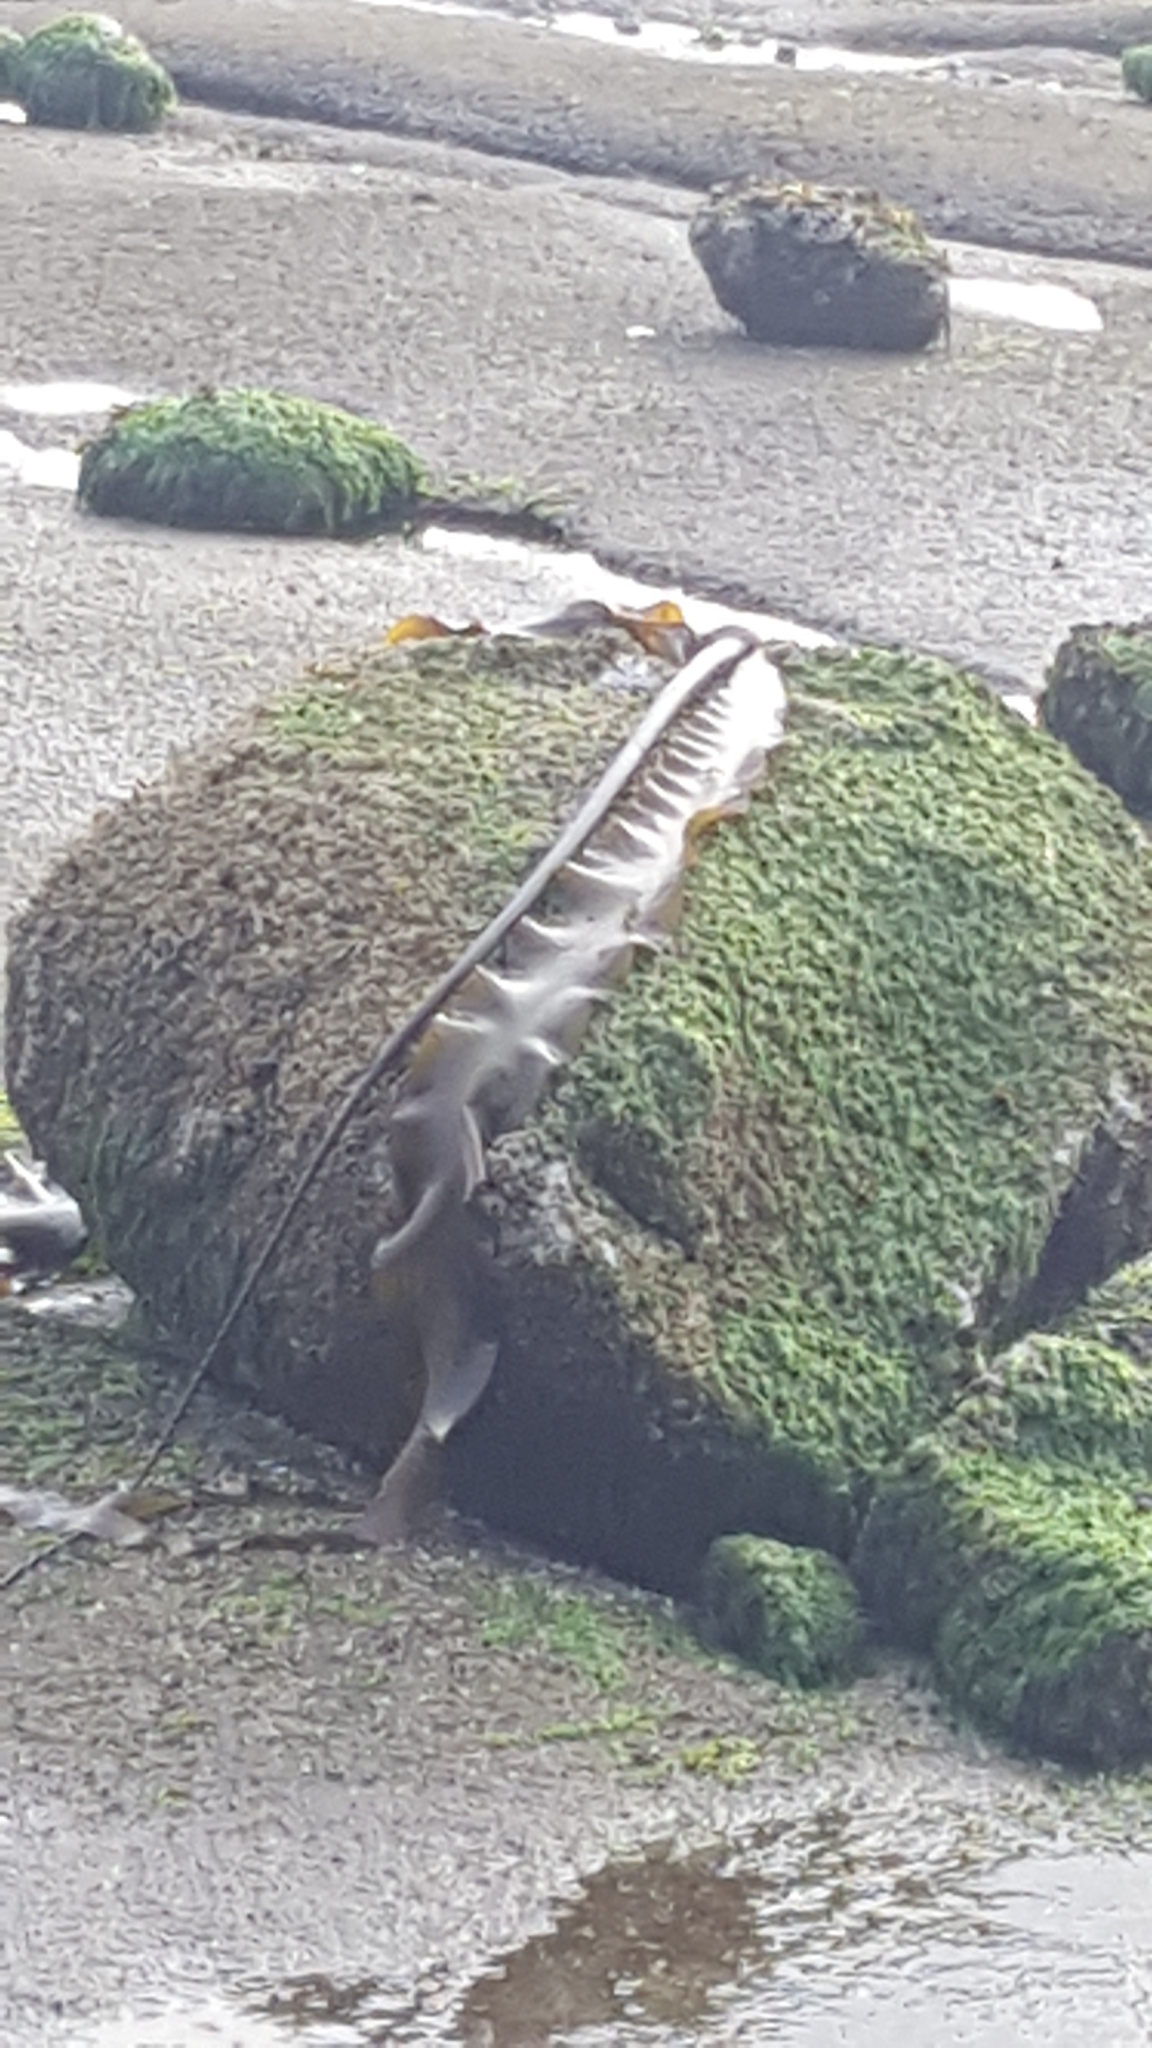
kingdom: Chromista
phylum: Ochrophyta
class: Phaeophyceae
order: Laminariales
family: Laminariaceae
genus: Nereocystis
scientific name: Nereocystis luetkeana
